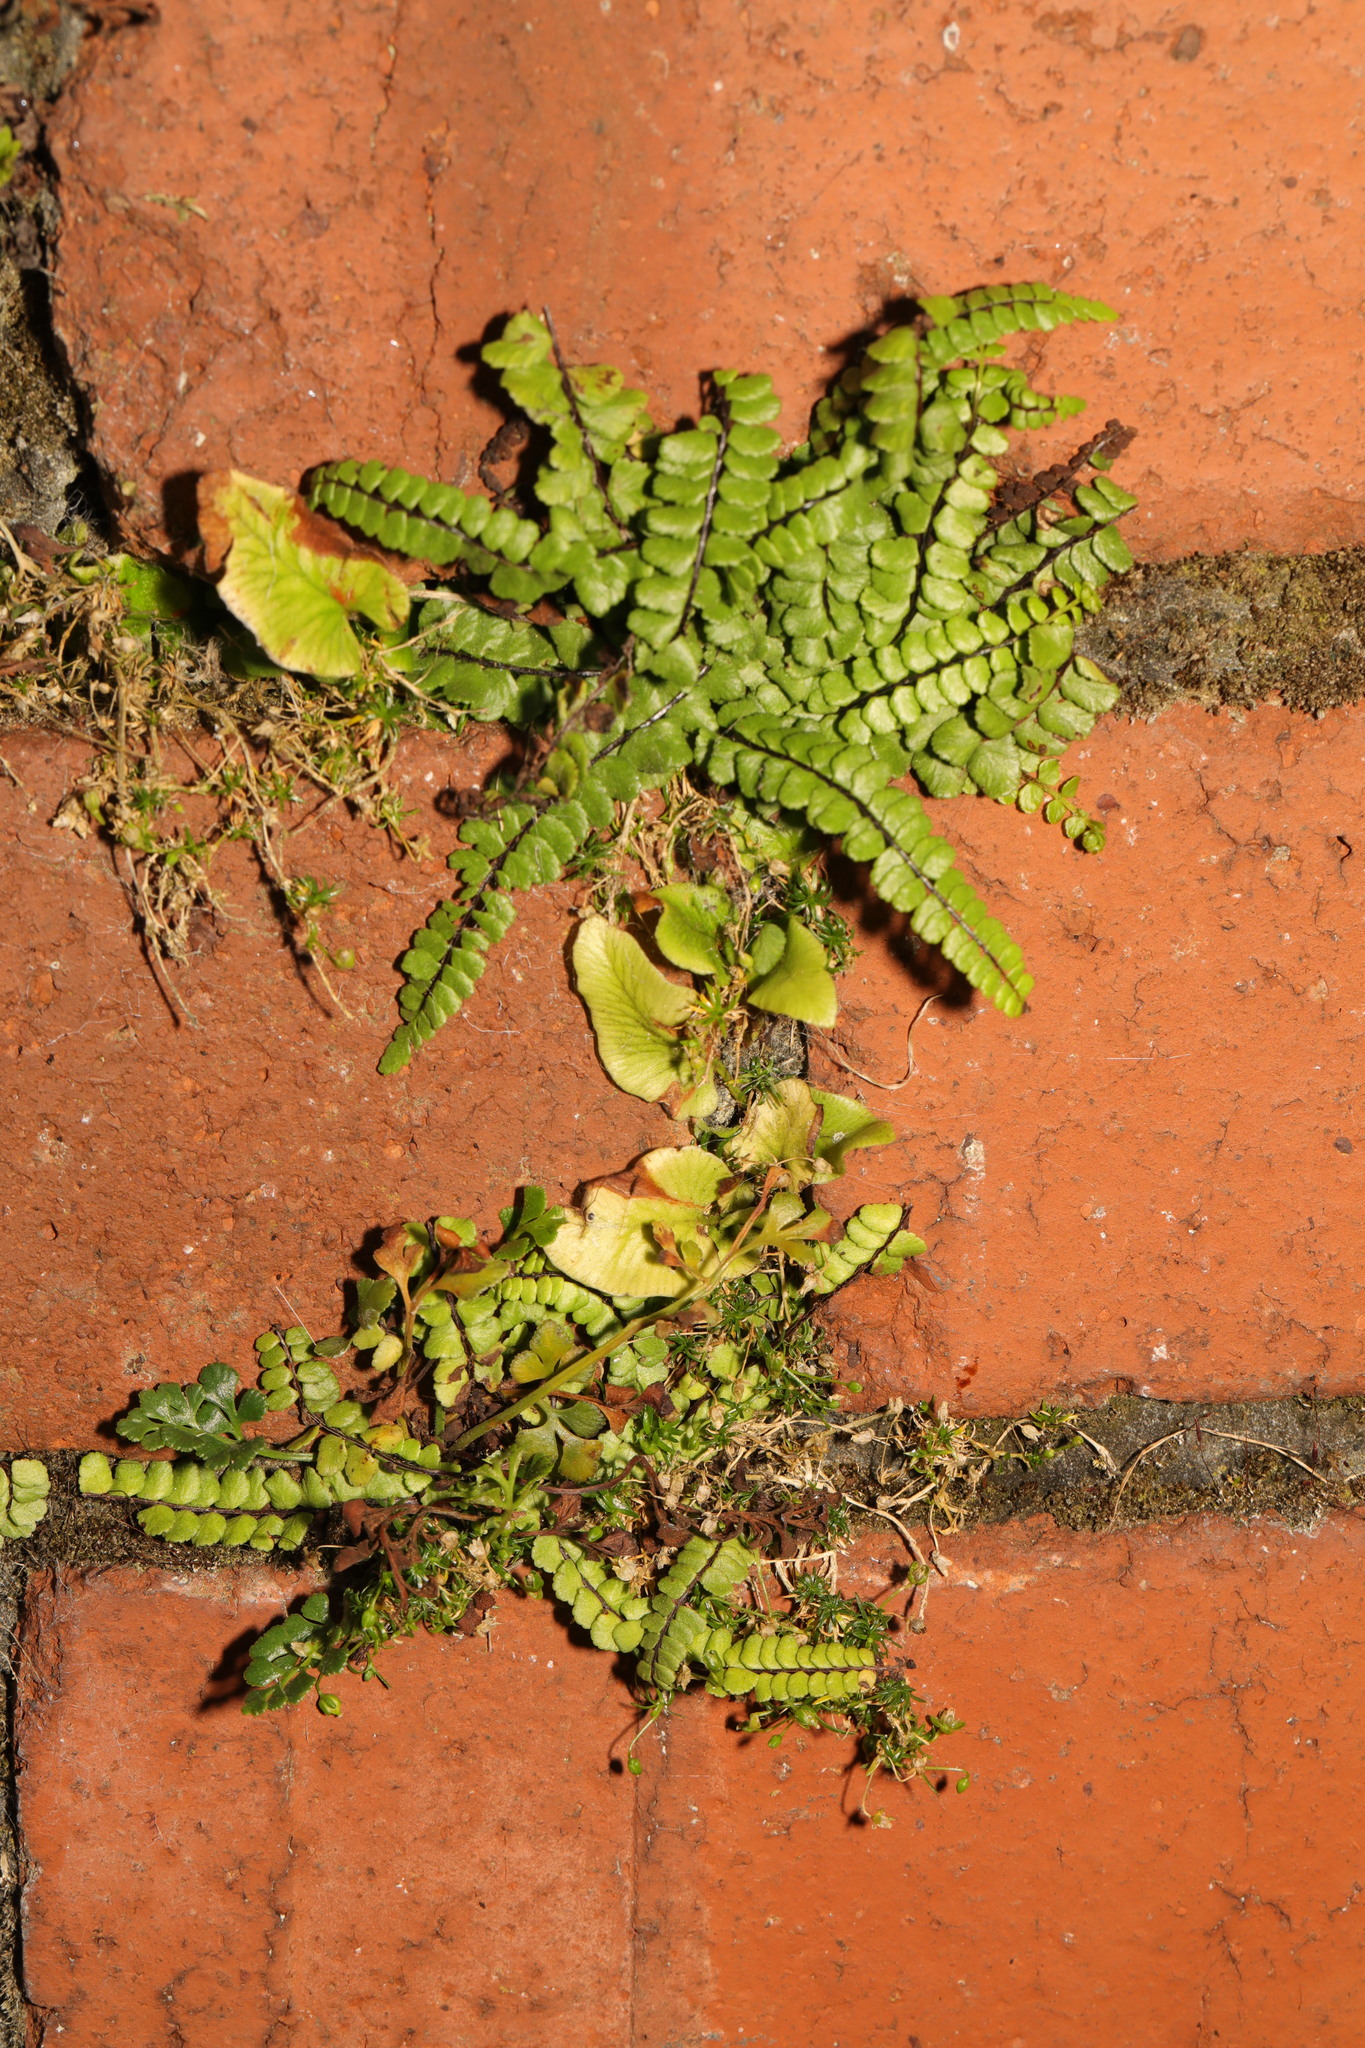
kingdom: Plantae
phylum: Tracheophyta
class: Polypodiopsida
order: Polypodiales
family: Aspleniaceae
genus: Asplenium
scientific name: Asplenium trichomanes
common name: Maidenhair spleenwort
